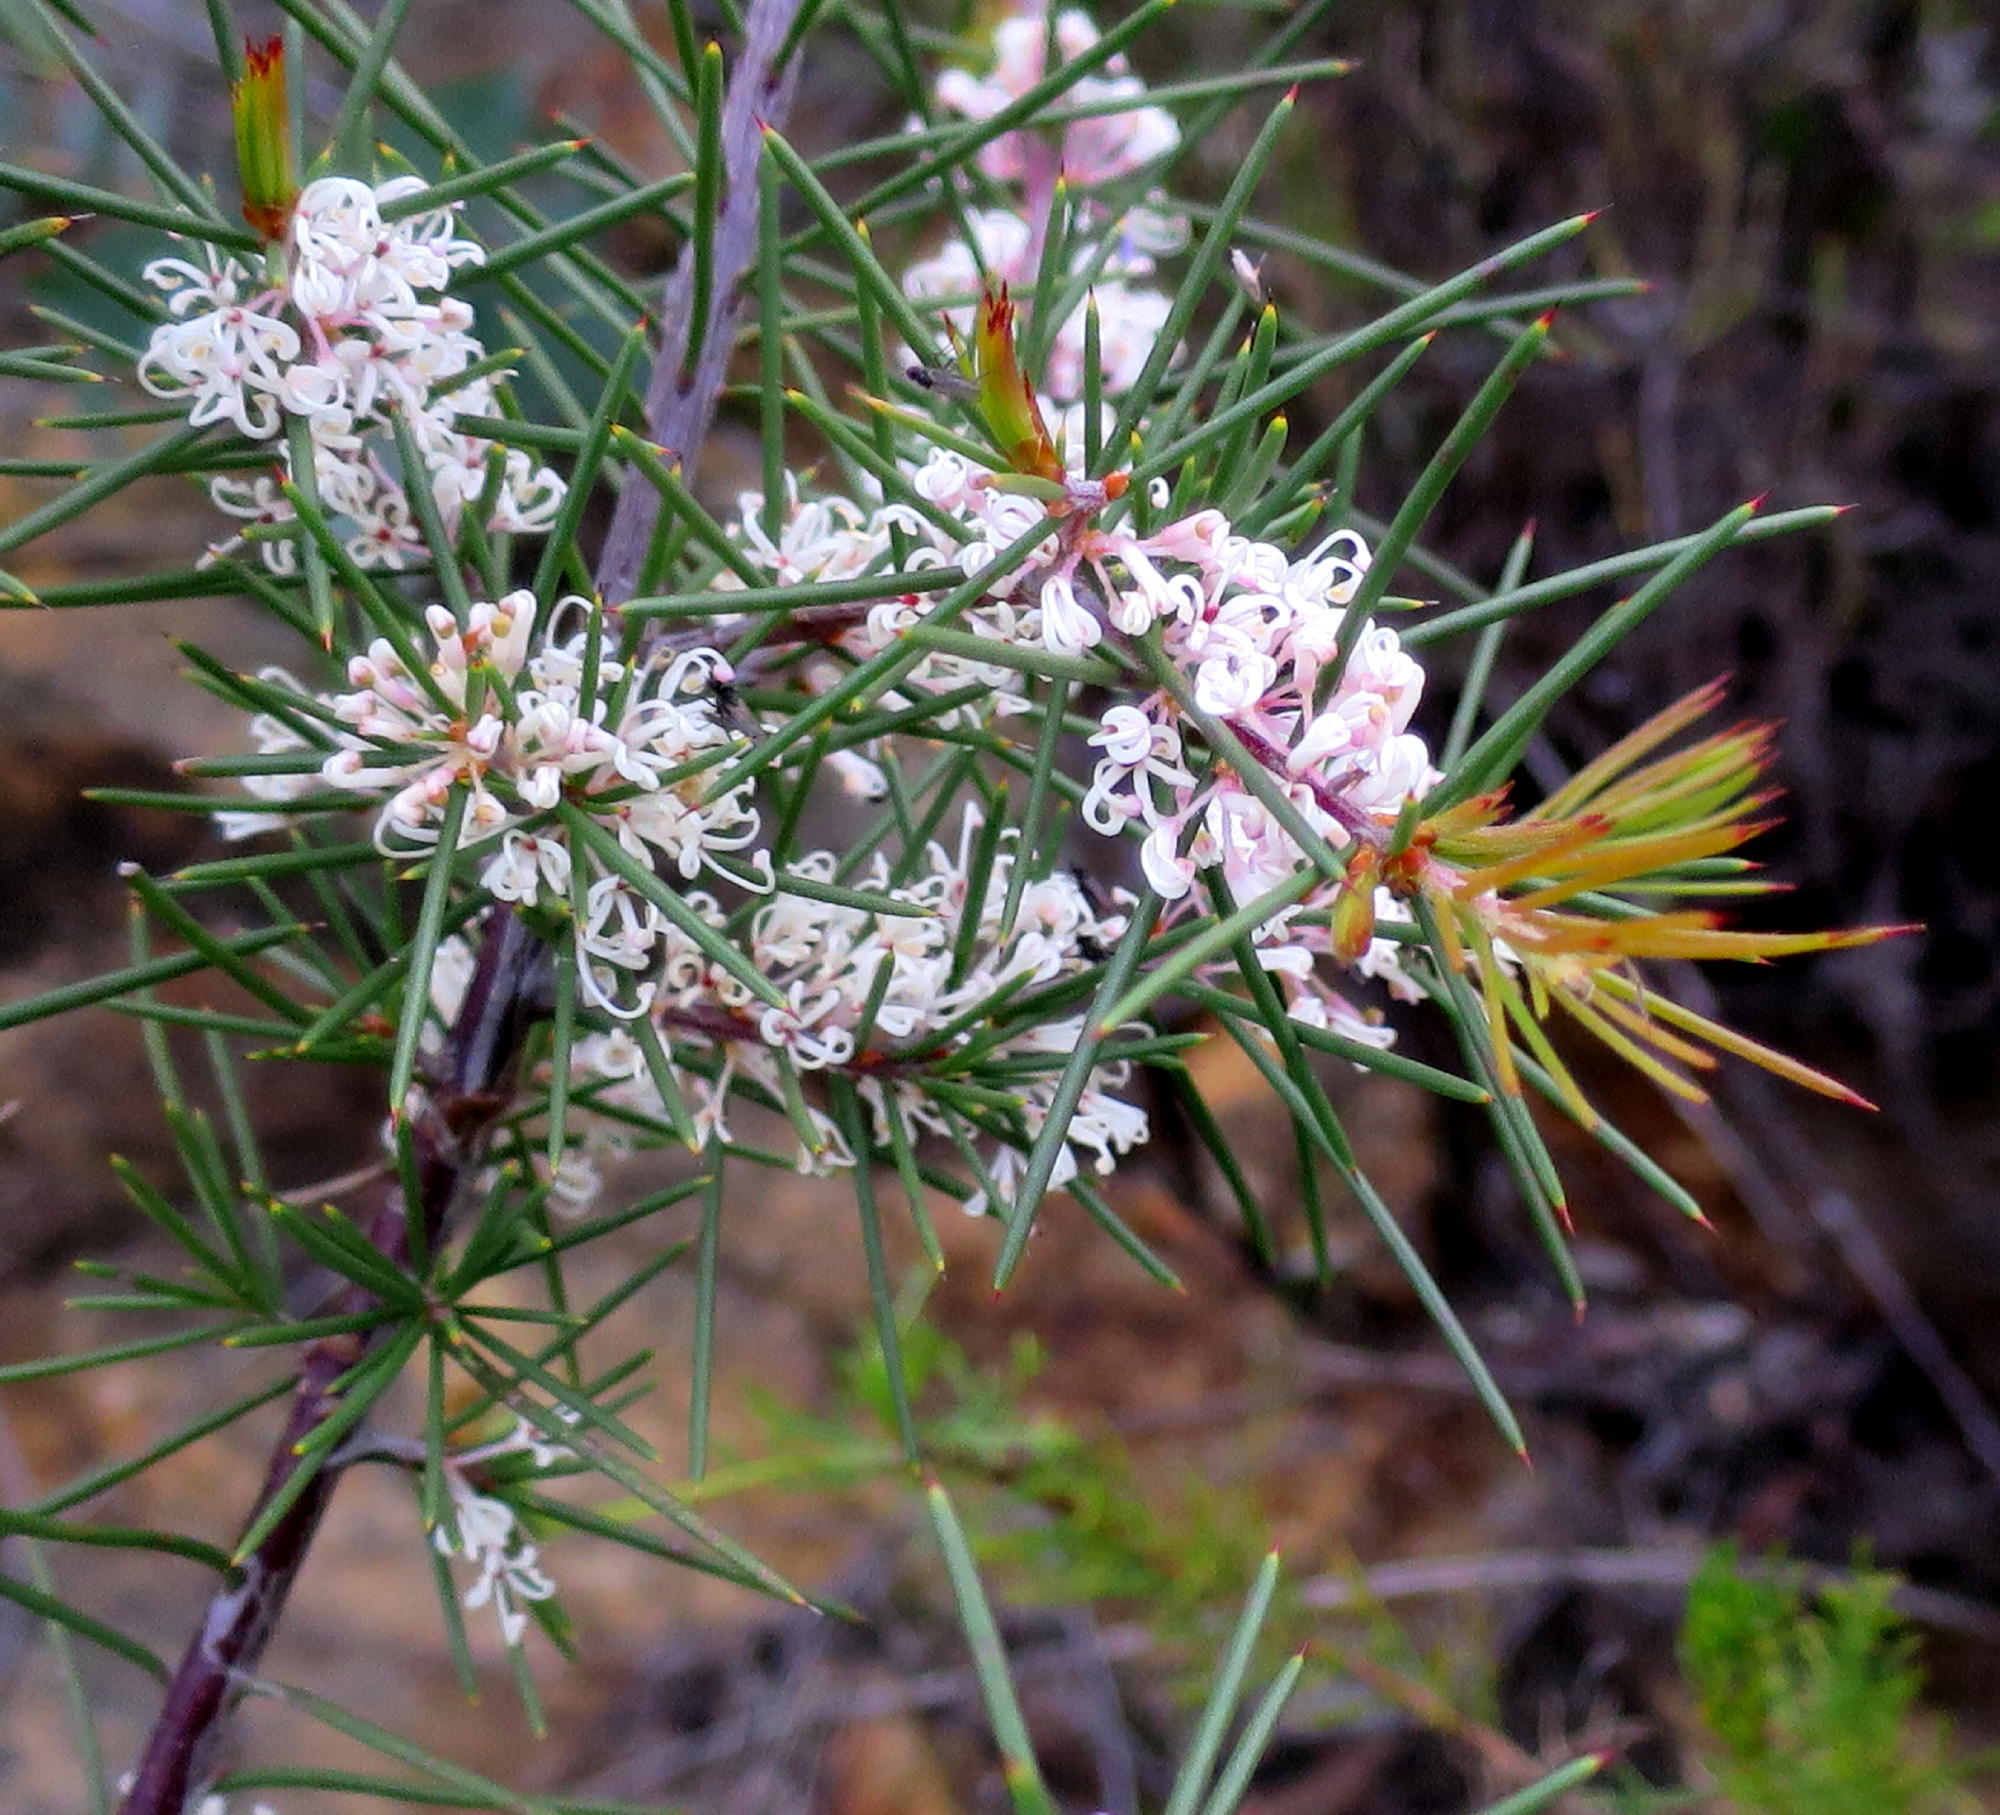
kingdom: Plantae
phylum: Tracheophyta
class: Magnoliopsida
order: Proteales
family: Proteaceae
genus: Hakea
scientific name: Hakea sericea
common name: Needle bush
